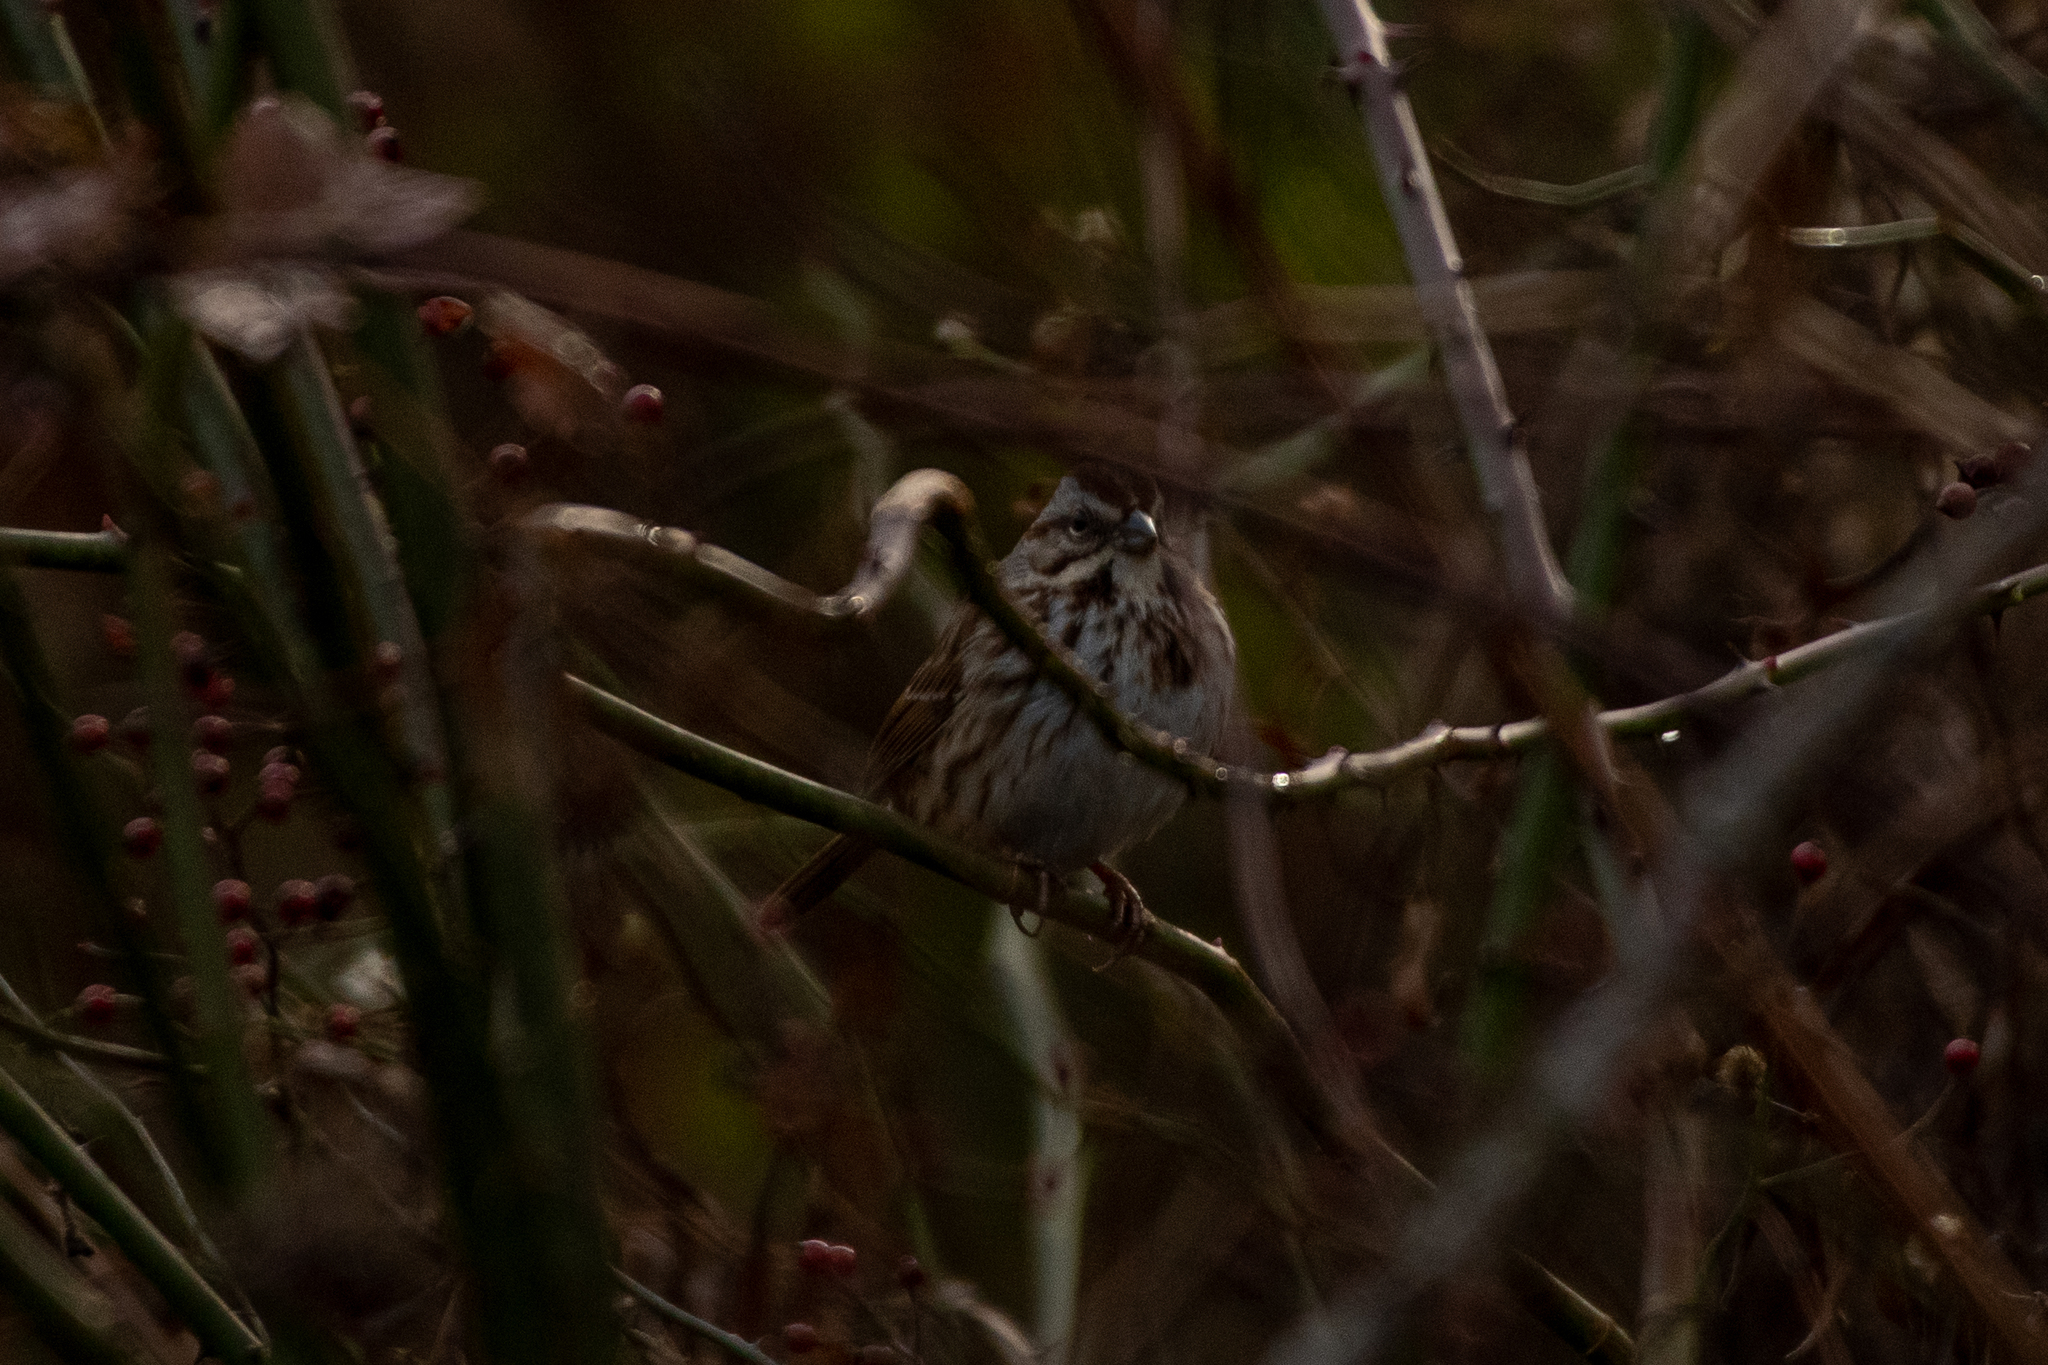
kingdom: Animalia
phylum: Chordata
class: Aves
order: Passeriformes
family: Passerellidae
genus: Melospiza
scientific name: Melospiza melodia
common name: Song sparrow
